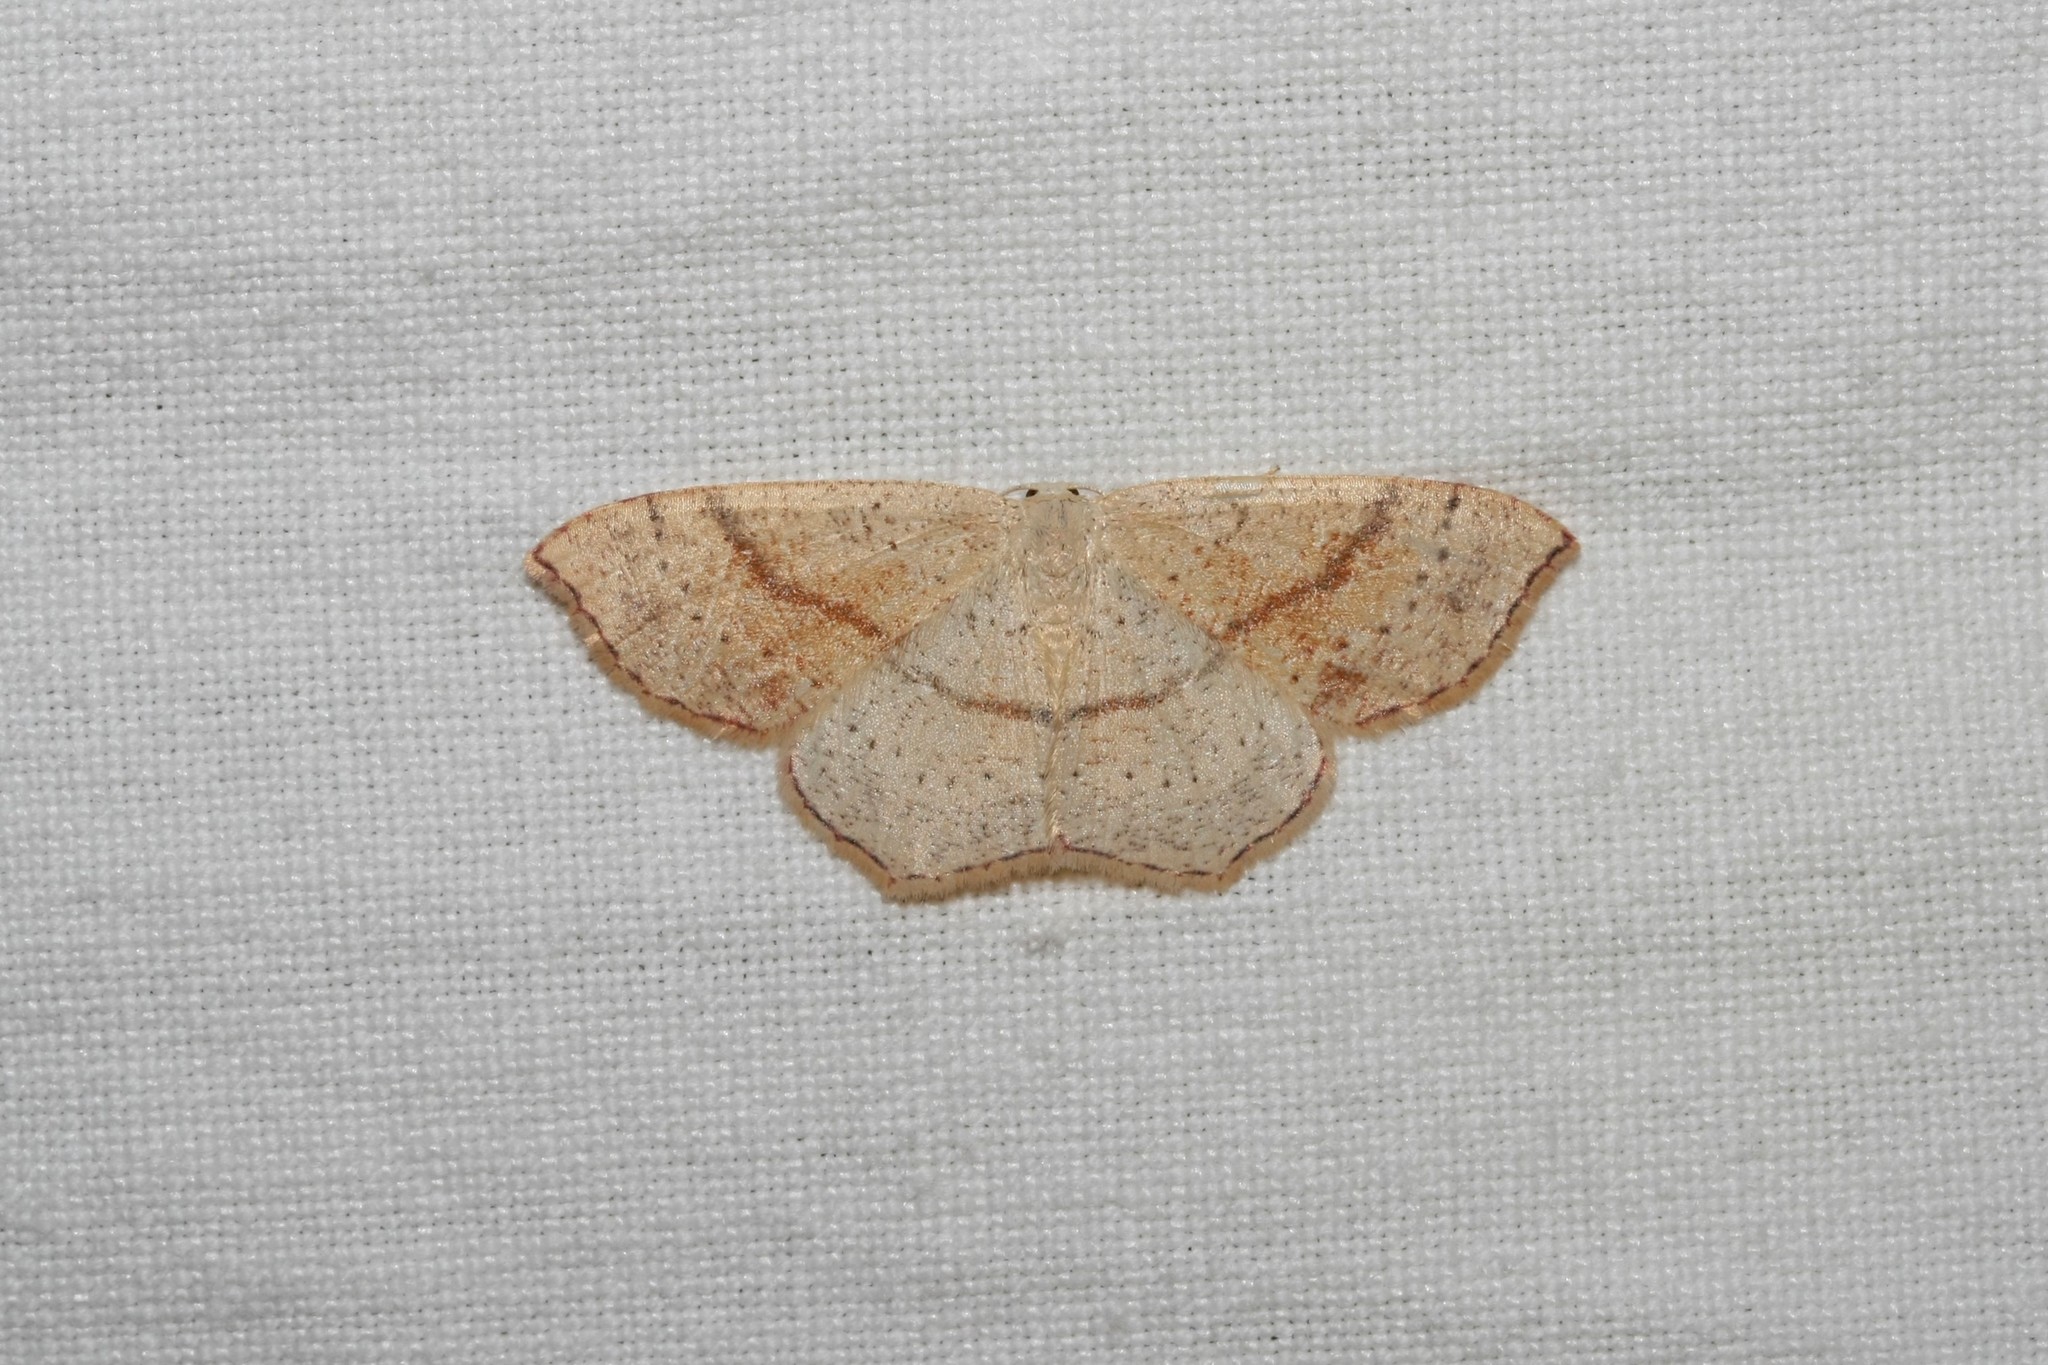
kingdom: Animalia
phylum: Arthropoda
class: Insecta
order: Lepidoptera
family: Geometridae
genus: Cyclophora
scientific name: Cyclophora punctaria
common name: Maiden's blush
